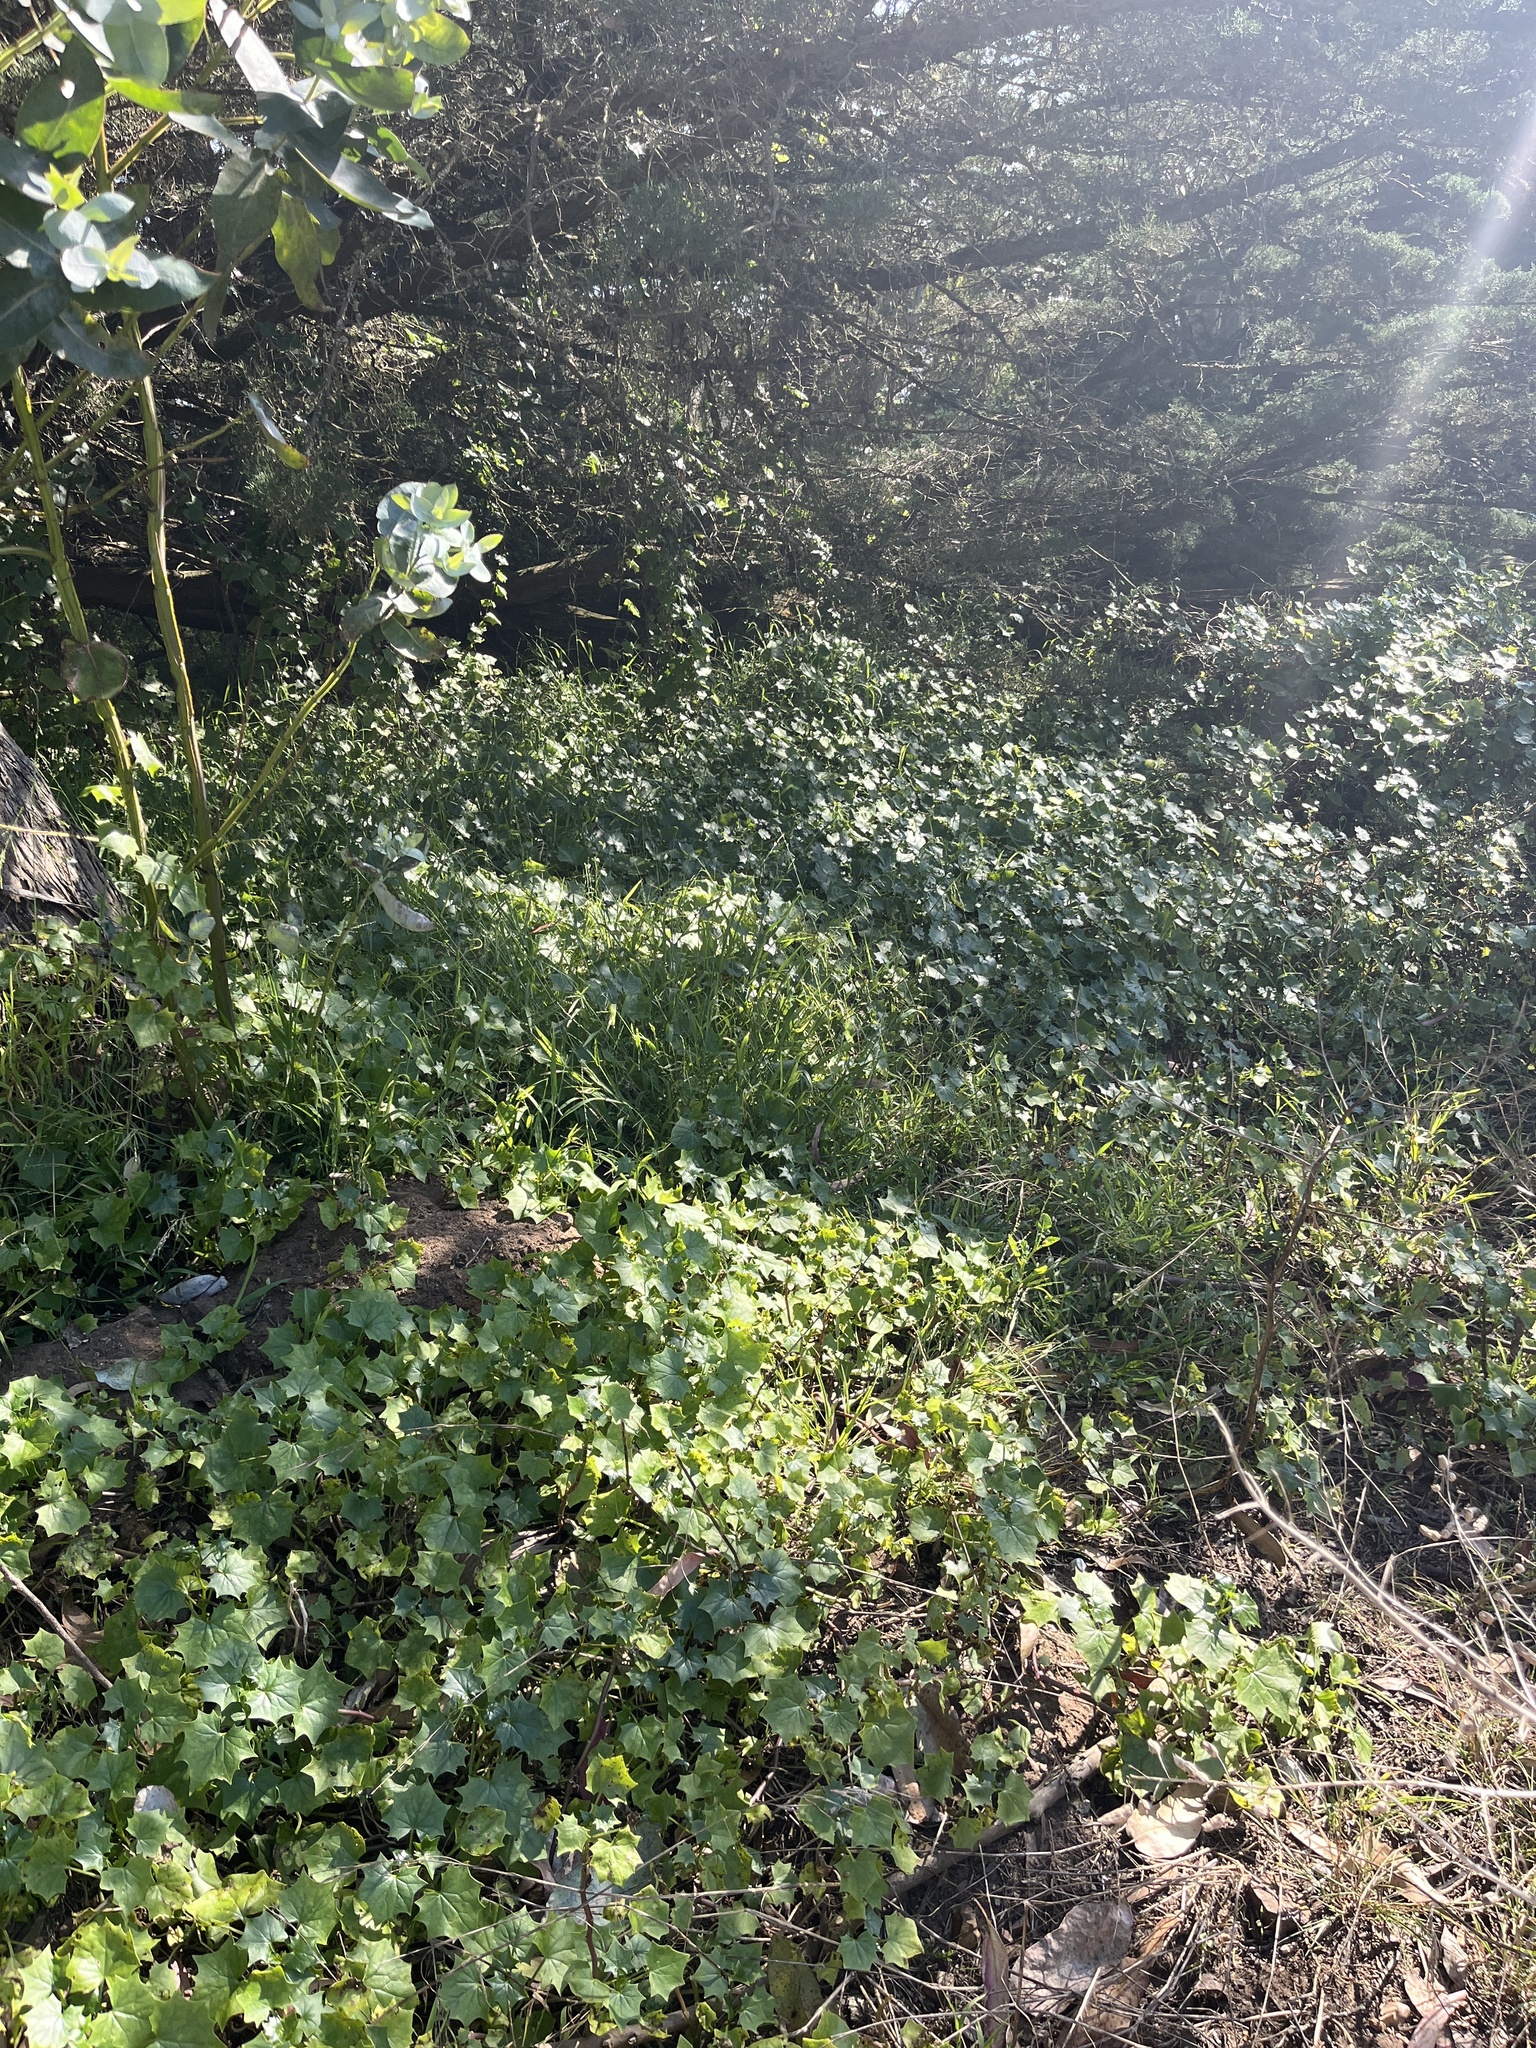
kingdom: Plantae
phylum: Tracheophyta
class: Magnoliopsida
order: Asterales
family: Asteraceae
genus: Delairea
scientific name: Delairea odorata
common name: Cape-ivy
